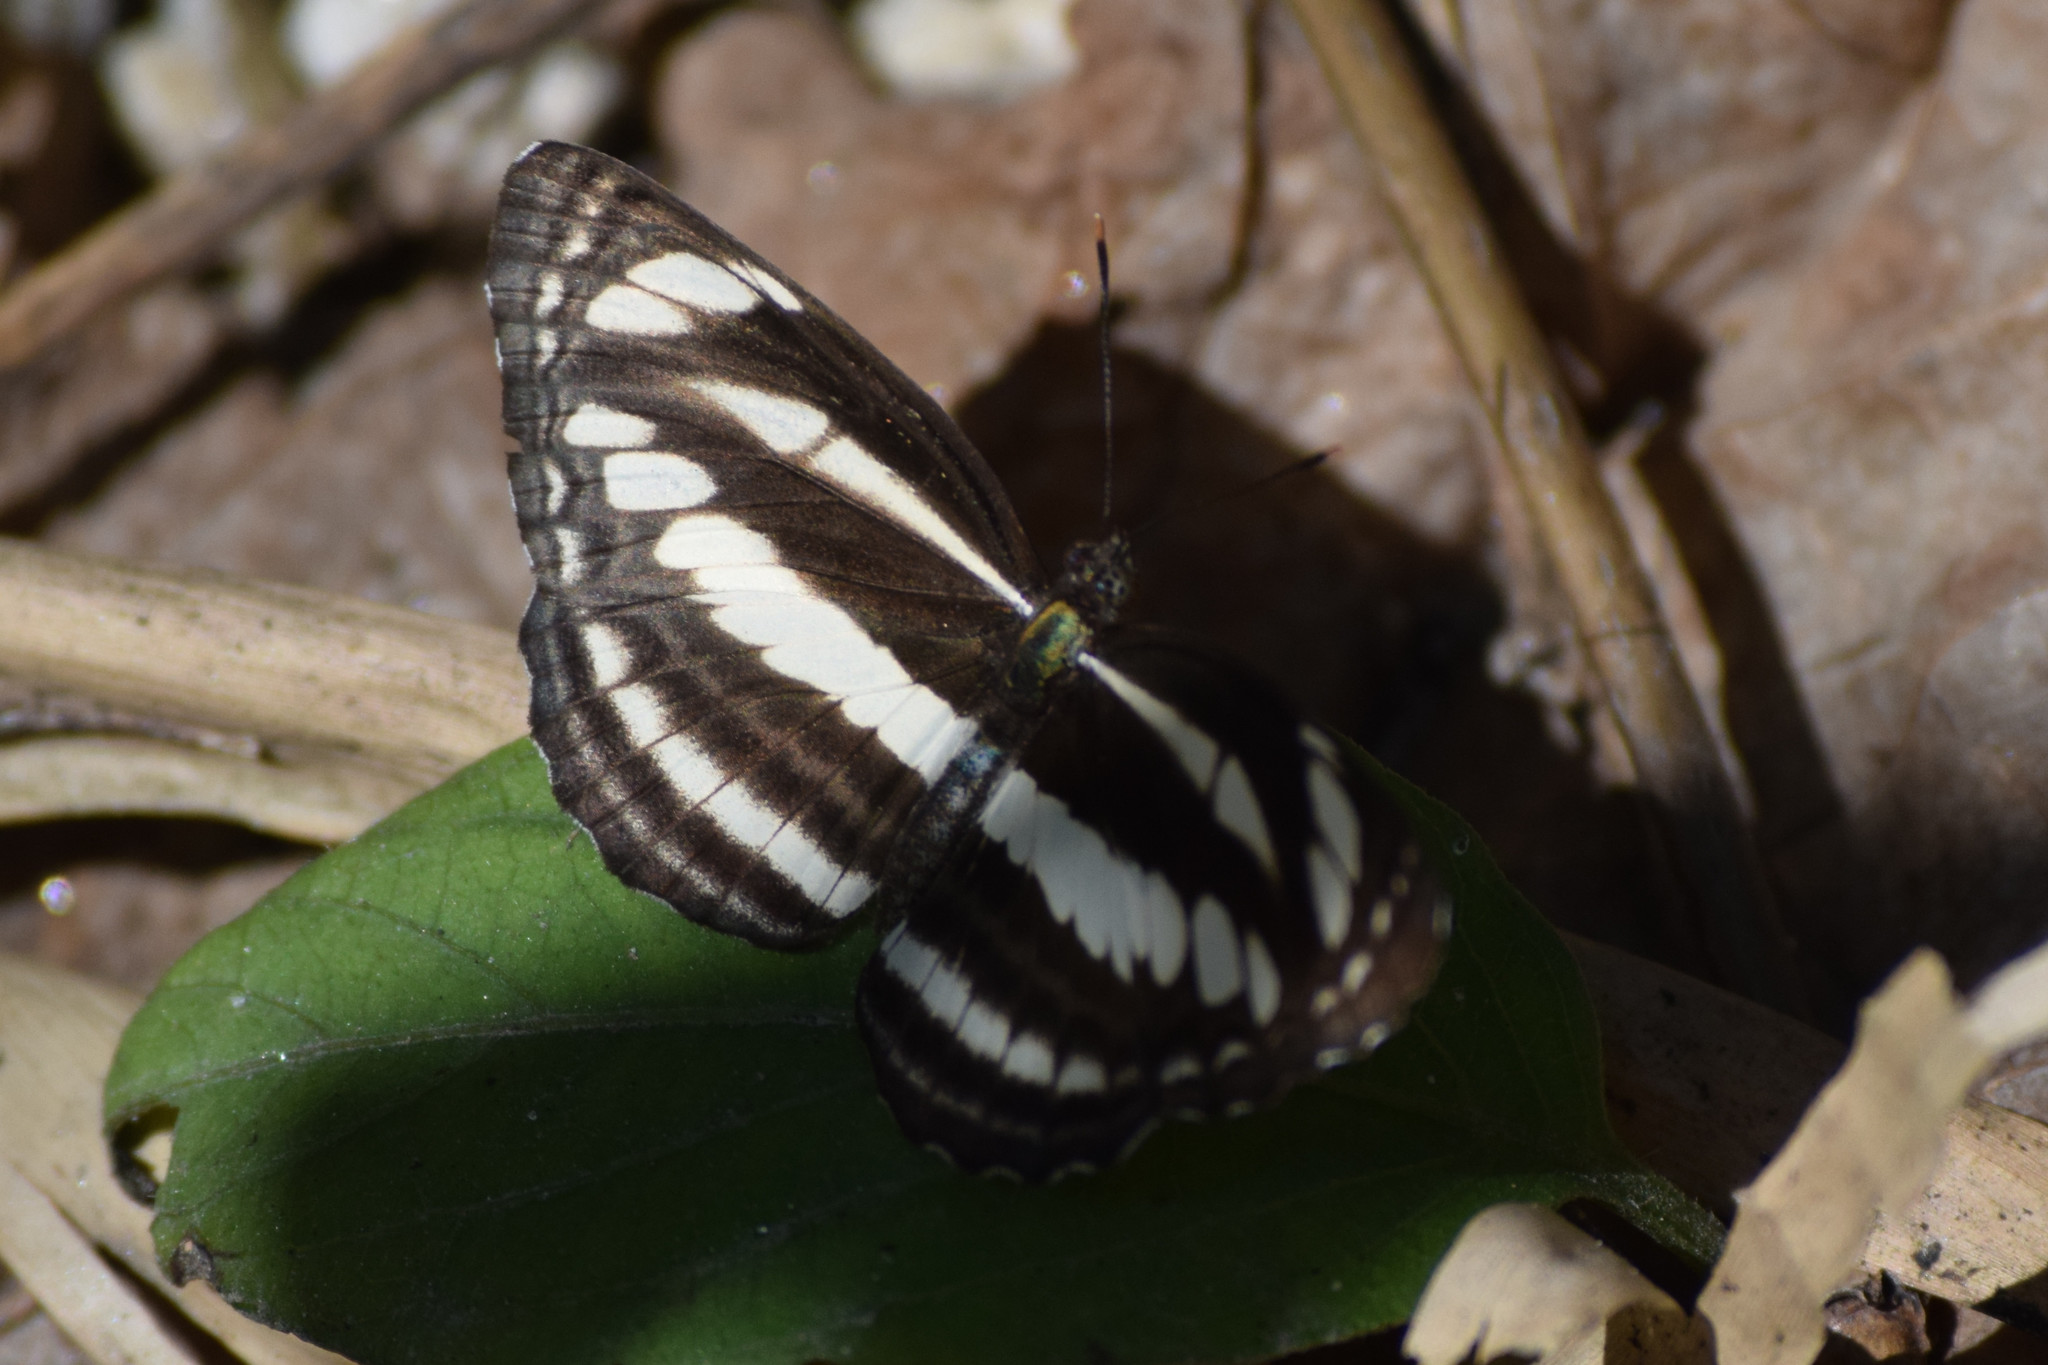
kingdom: Animalia
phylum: Arthropoda
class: Insecta
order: Lepidoptera
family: Nymphalidae
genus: Neptis
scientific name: Neptis clinia
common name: Southern sullied sailer
